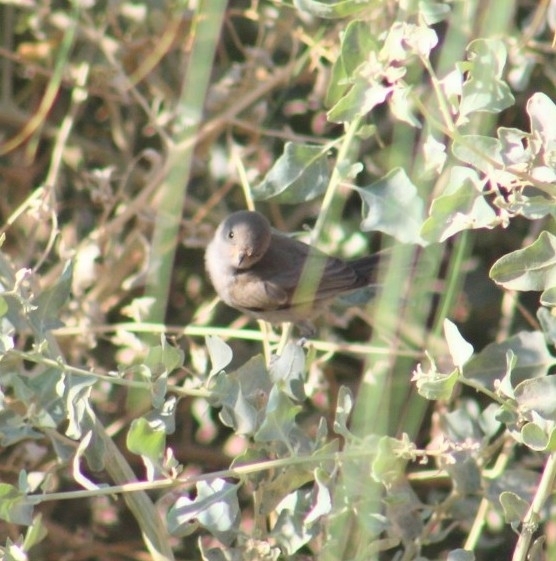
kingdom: Animalia
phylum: Chordata
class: Aves
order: Passeriformes
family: Remizidae
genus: Auriparus
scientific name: Auriparus flaviceps
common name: Verdin
